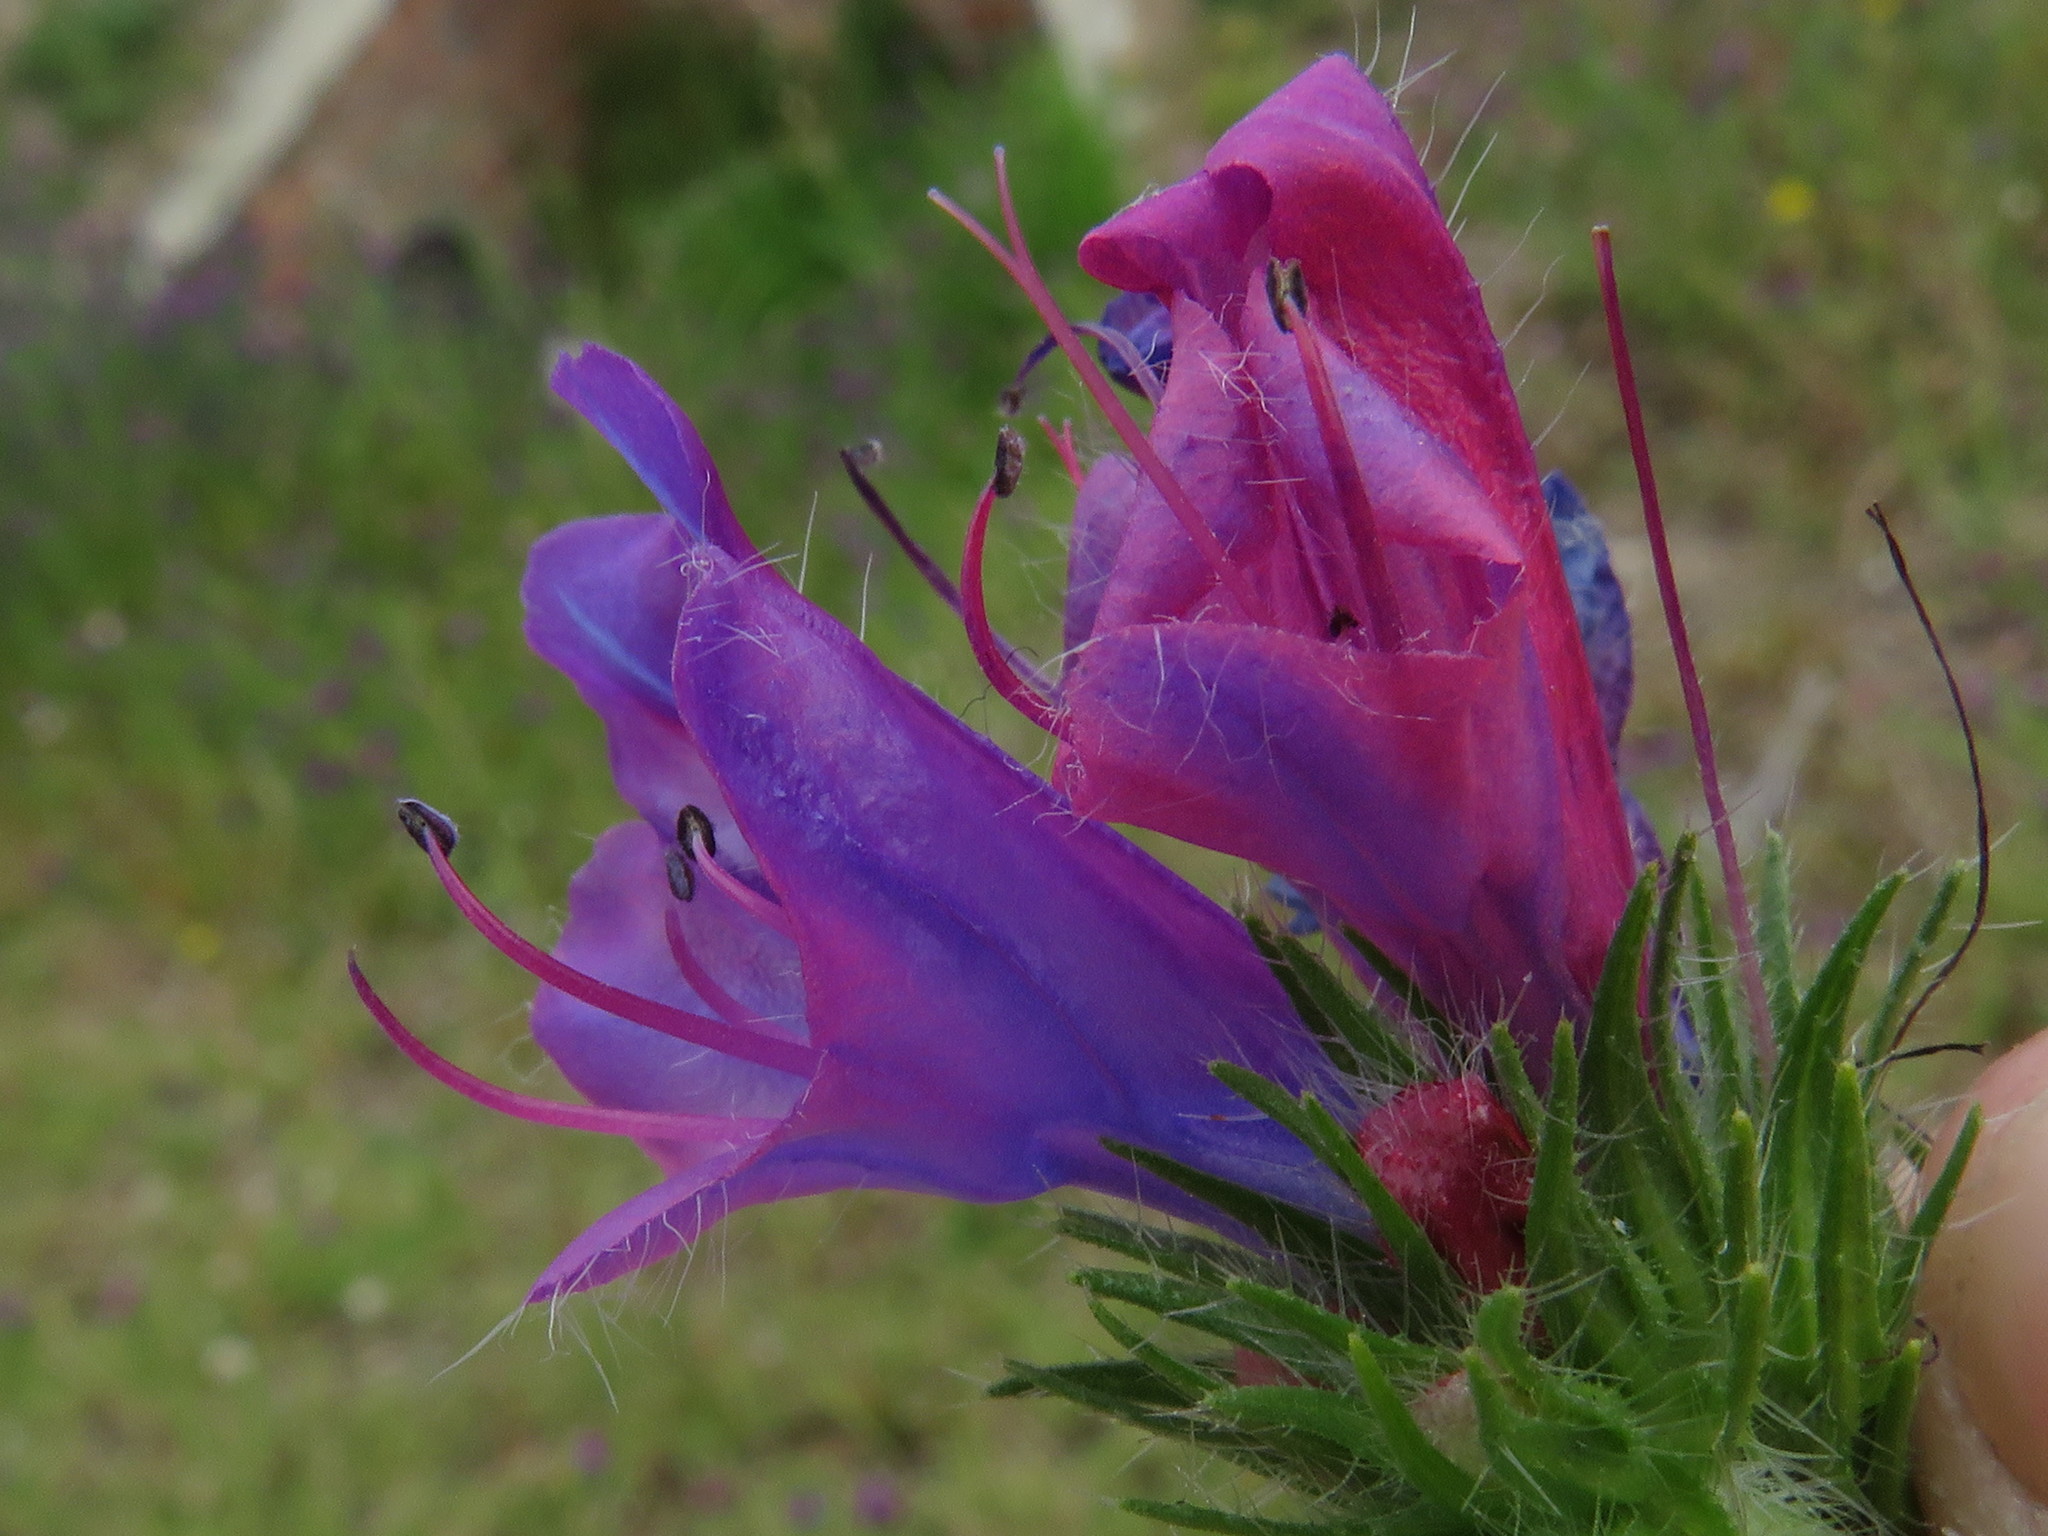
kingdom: Plantae
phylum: Tracheophyta
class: Magnoliopsida
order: Boraginales
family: Boraginaceae
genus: Echium
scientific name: Echium plantagineum
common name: Purple viper's-bugloss
